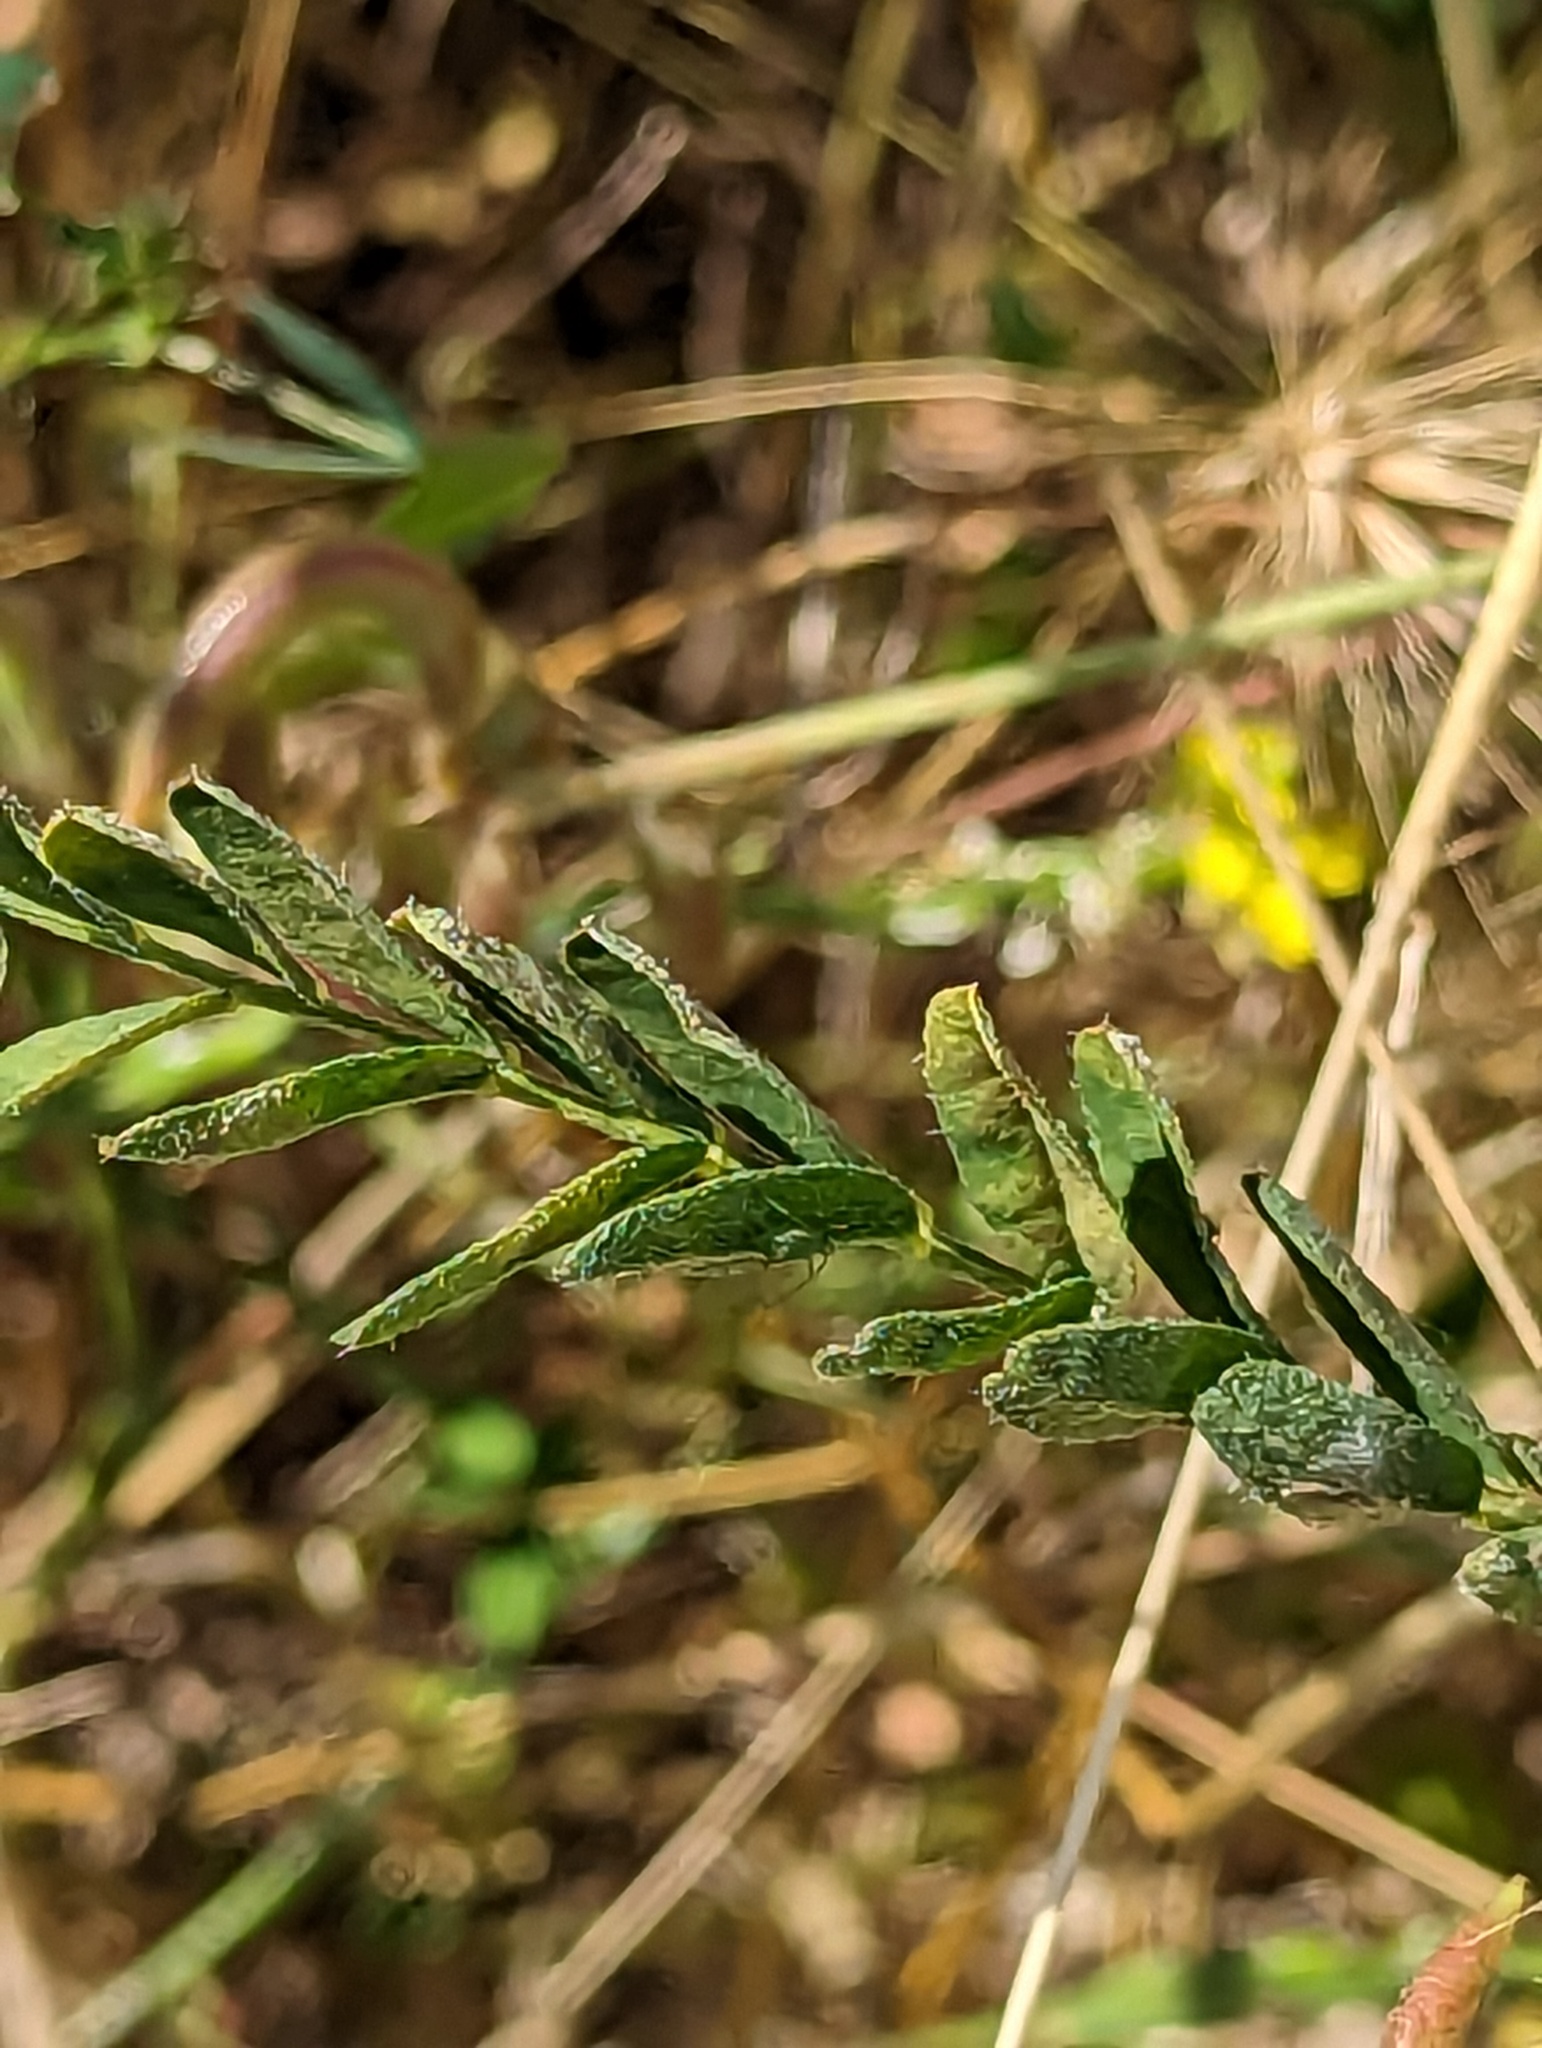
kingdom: Plantae
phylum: Tracheophyta
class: Magnoliopsida
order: Fabales
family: Fabaceae
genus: Astragalus
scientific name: Astragalus hamosus
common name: European milkvetch
